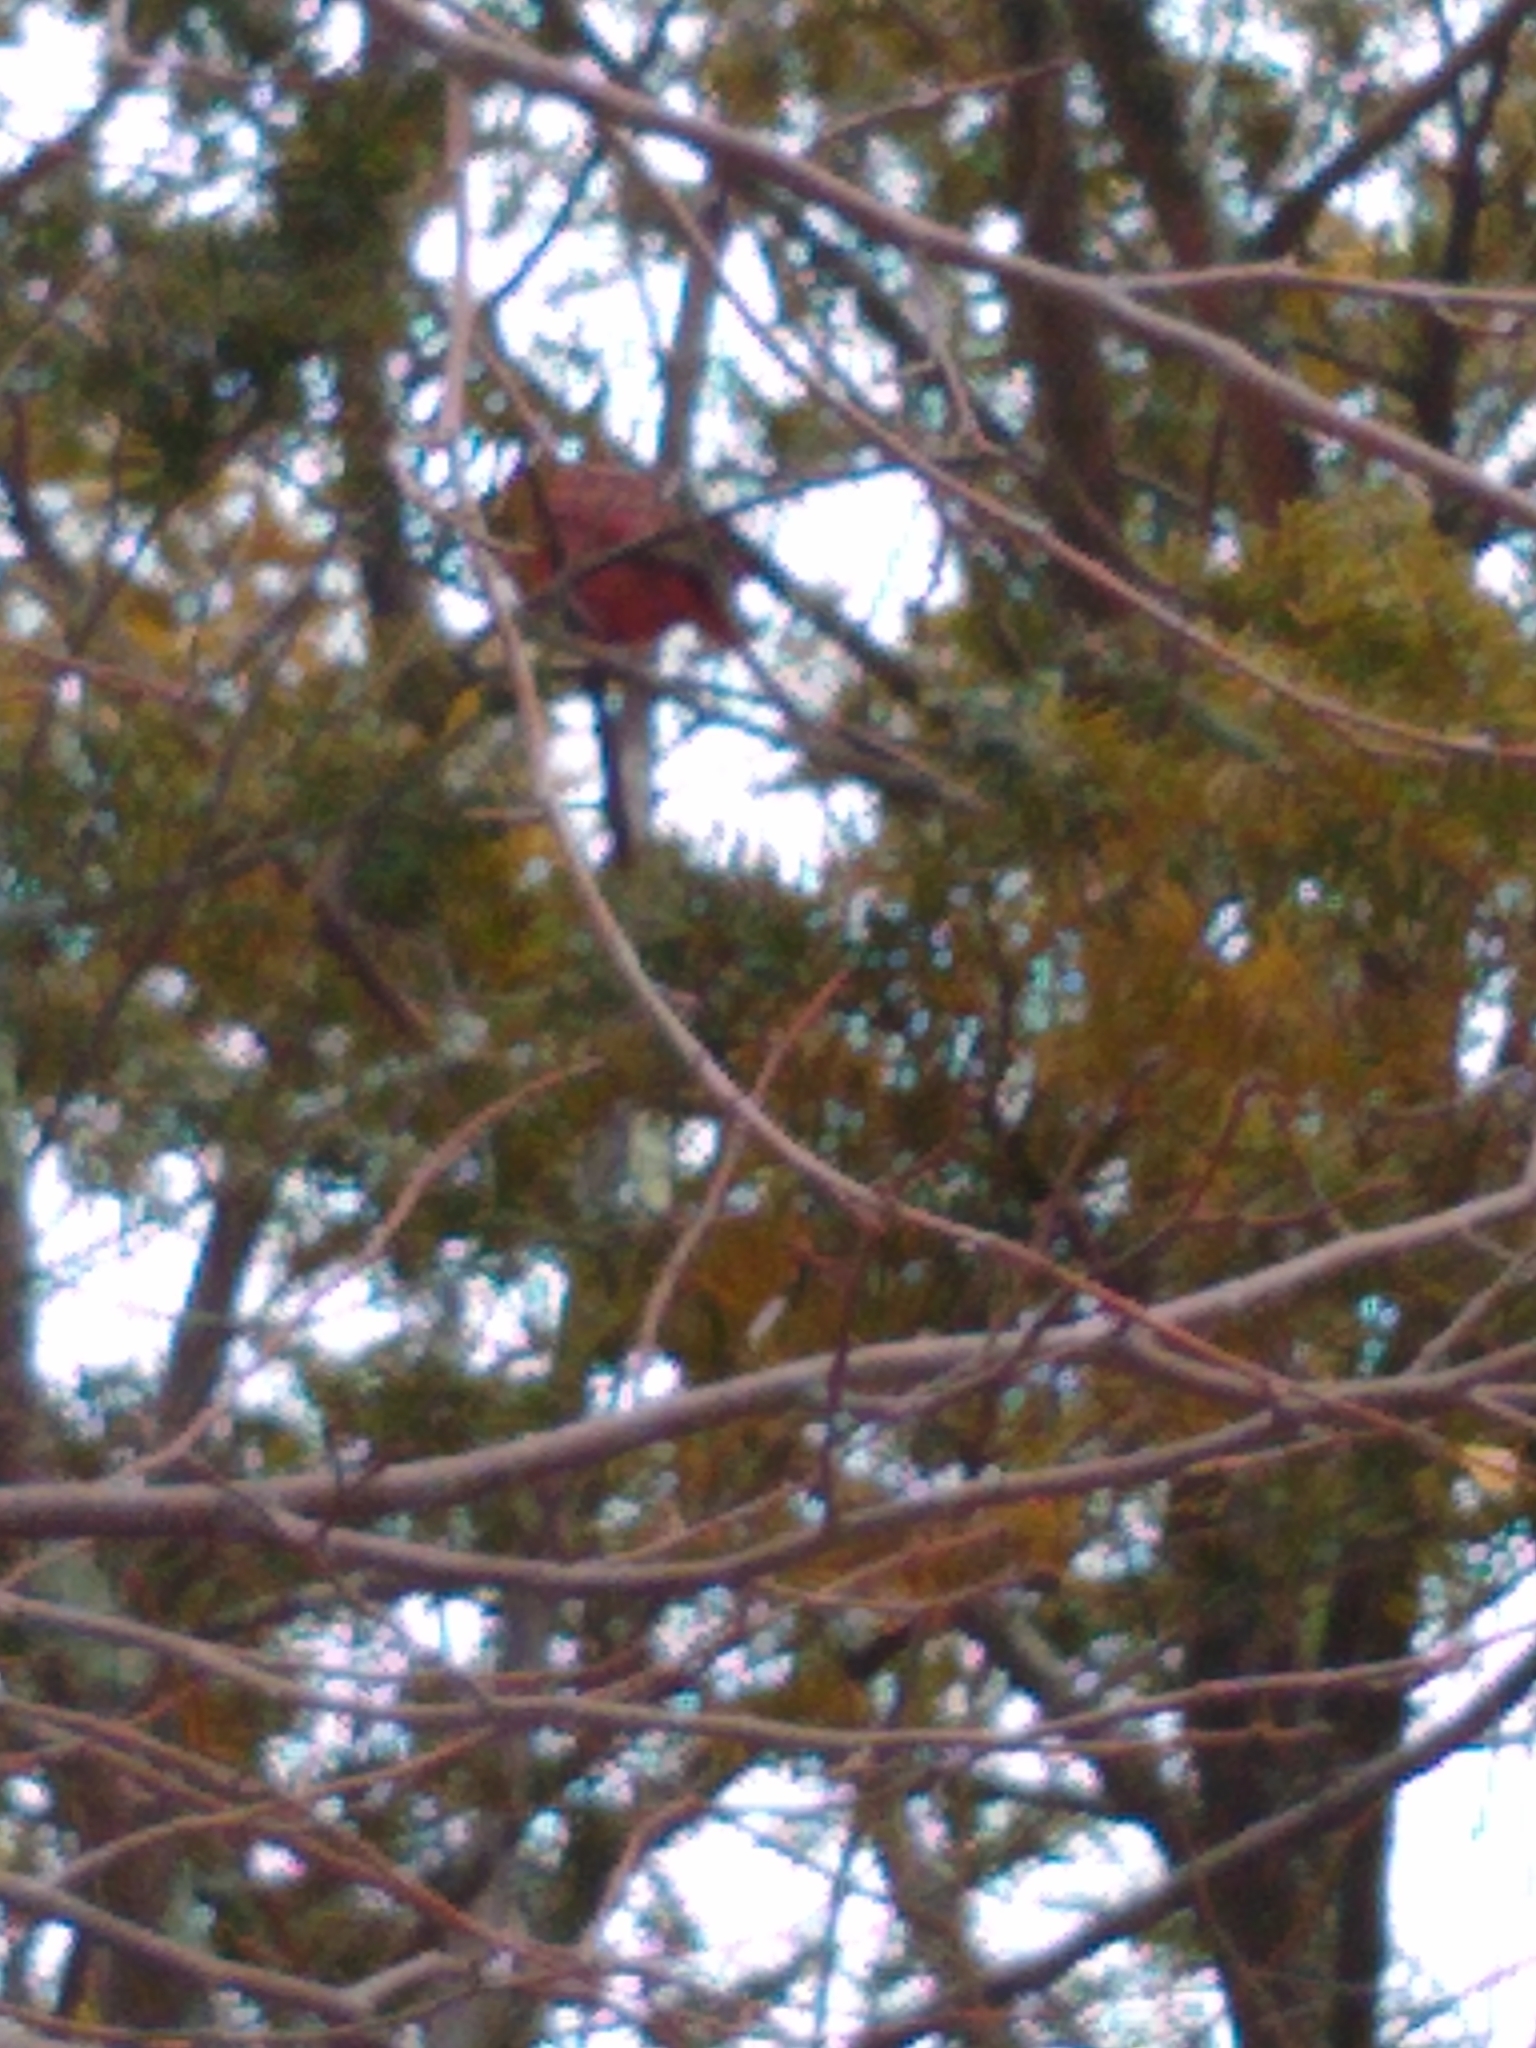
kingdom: Animalia
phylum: Chordata
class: Aves
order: Passeriformes
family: Cardinalidae
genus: Cardinalis
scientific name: Cardinalis cardinalis
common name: Northern cardinal
